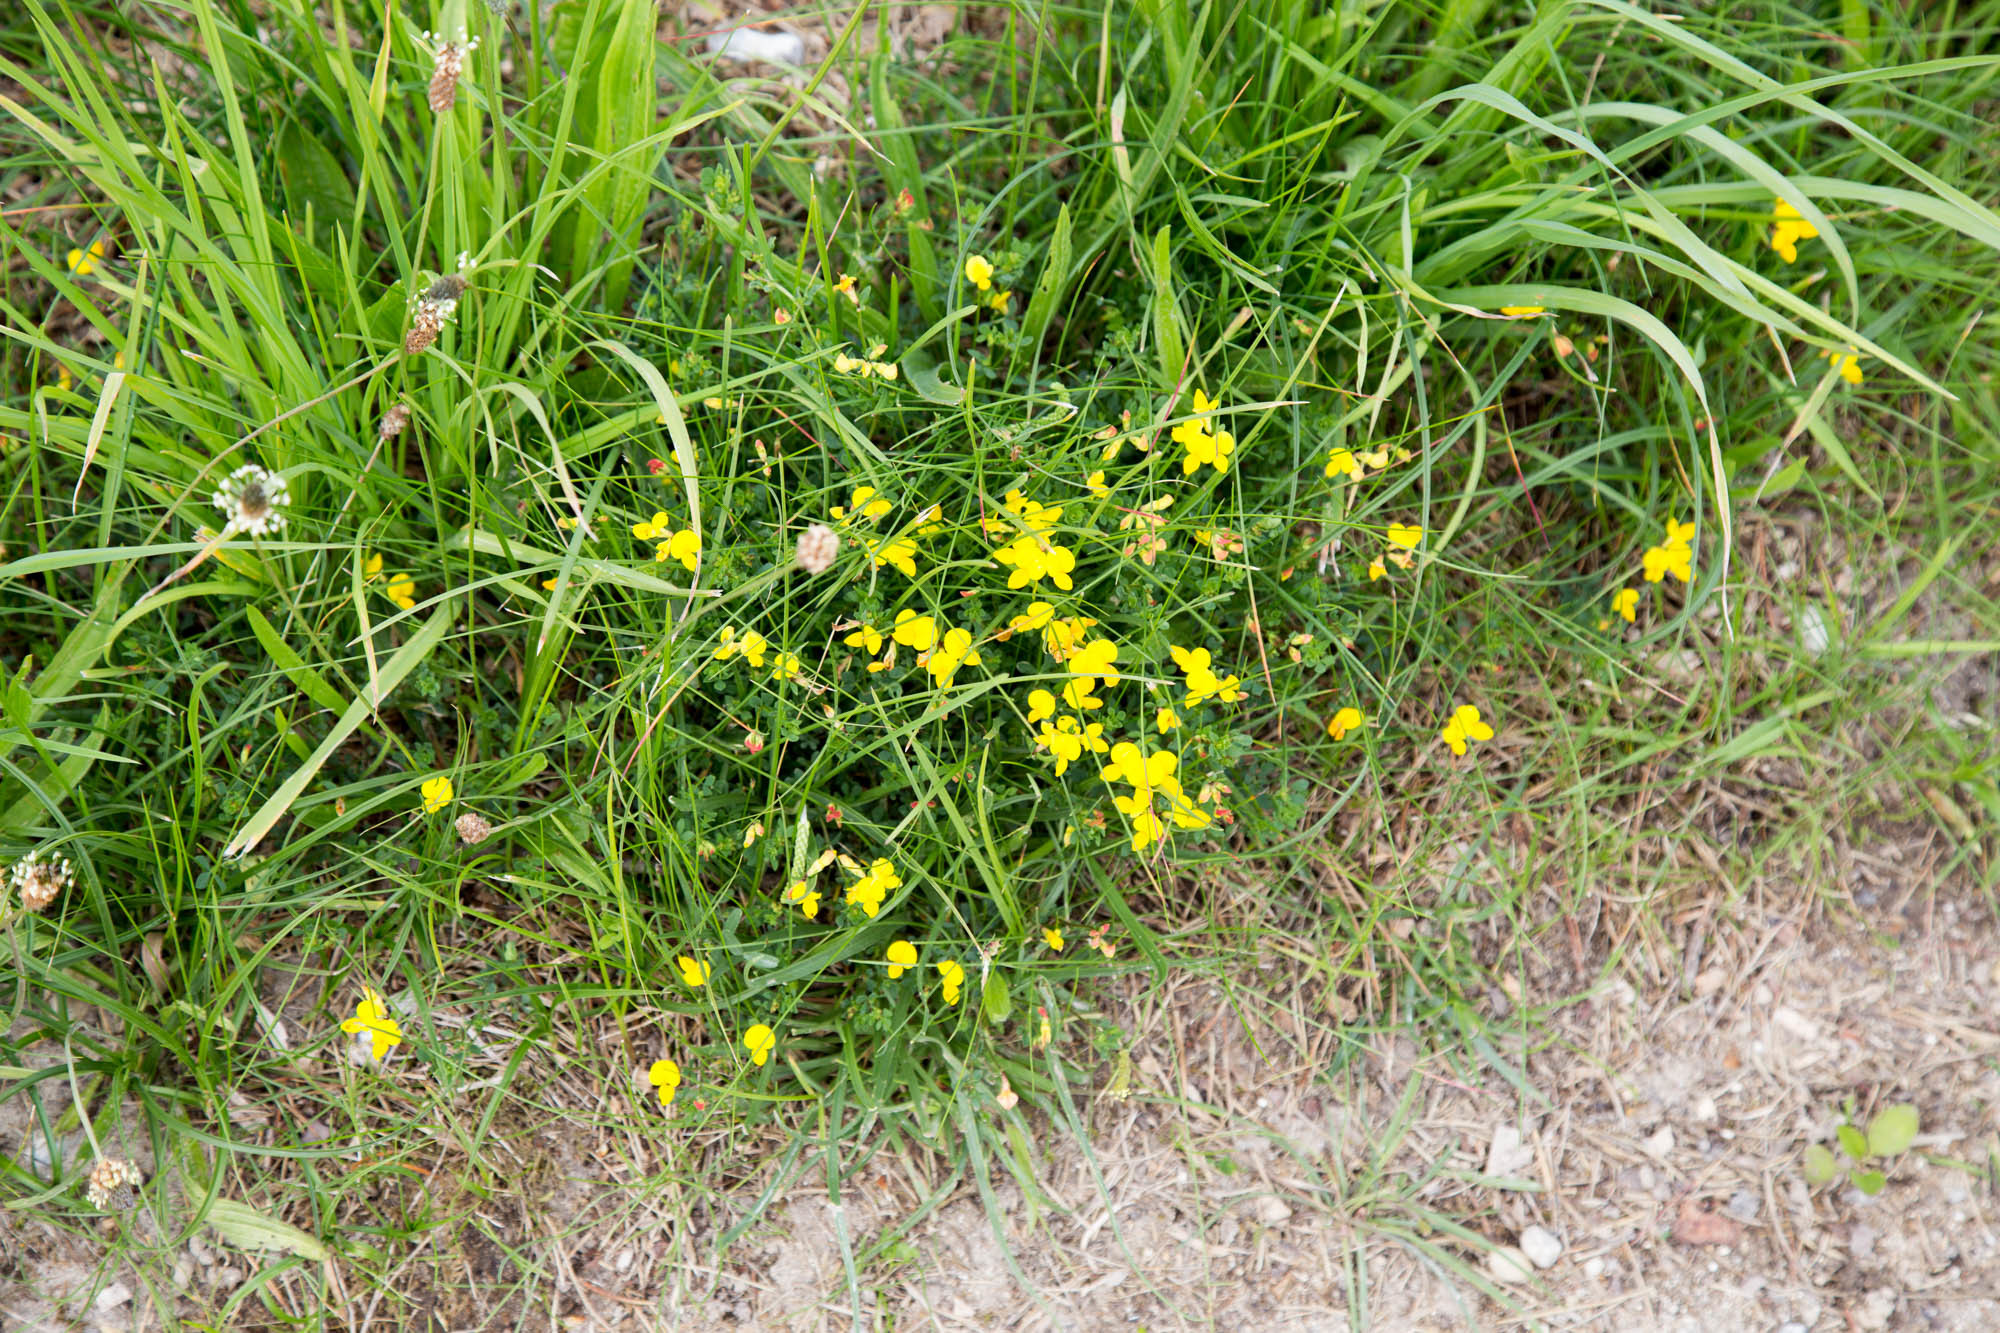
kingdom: Plantae
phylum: Tracheophyta
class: Magnoliopsida
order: Fabales
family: Fabaceae
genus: Lotus
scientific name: Lotus corniculatus
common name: Common bird's-foot-trefoil
